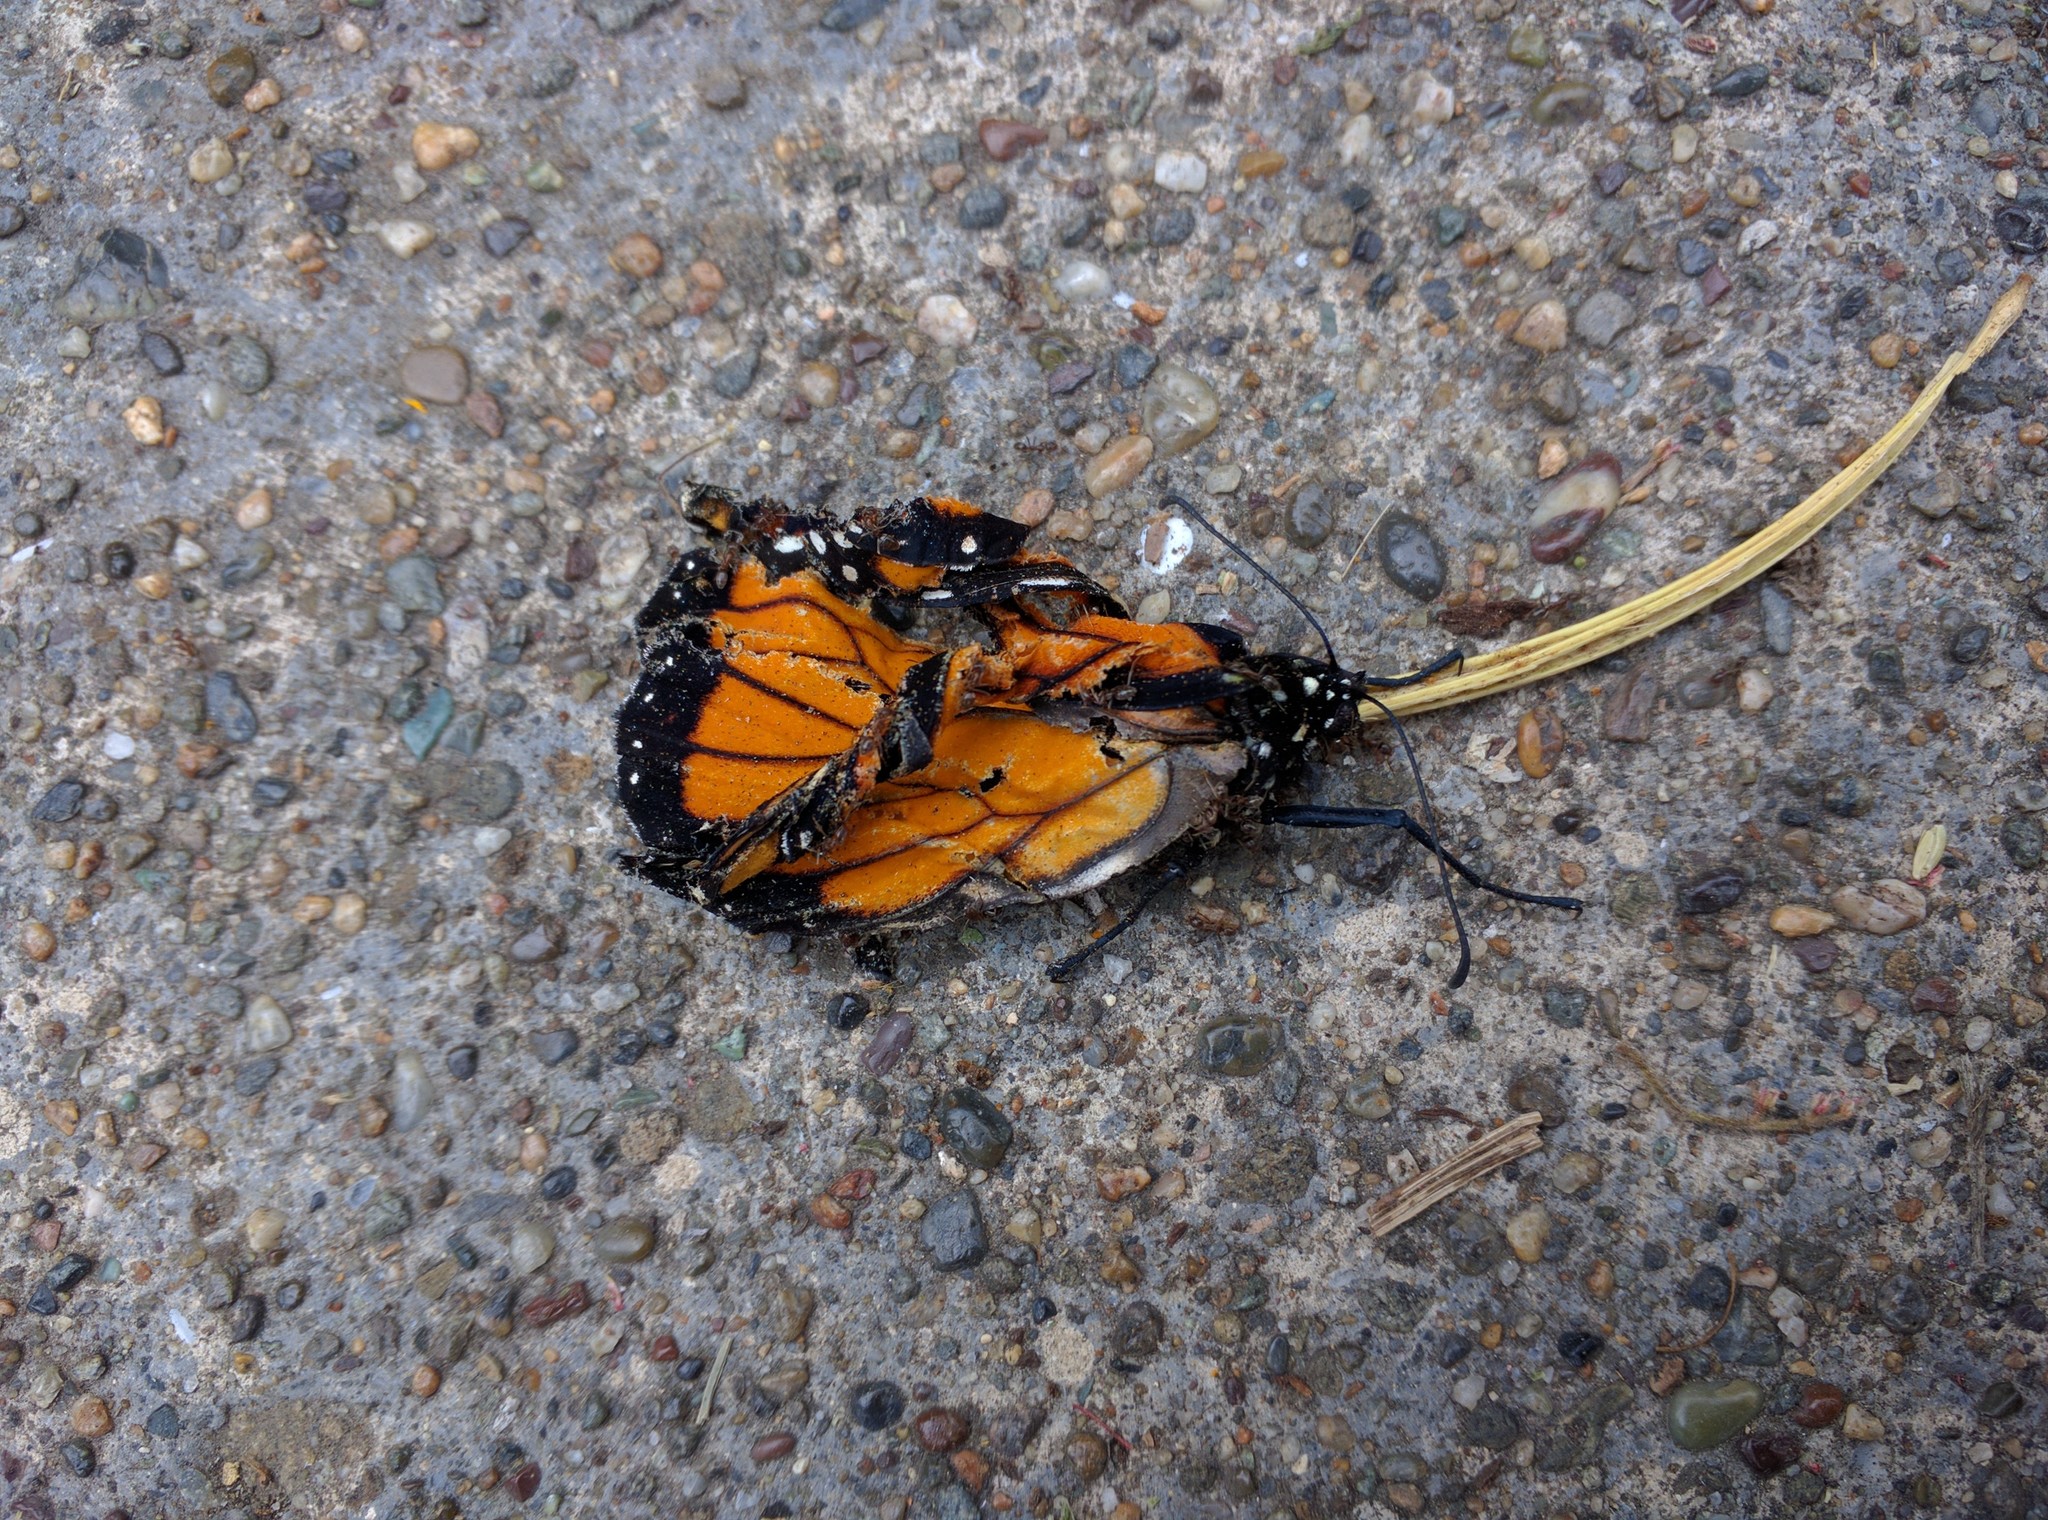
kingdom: Animalia
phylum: Arthropoda
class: Insecta
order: Lepidoptera
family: Nymphalidae
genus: Danaus
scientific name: Danaus plexippus
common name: Monarch
